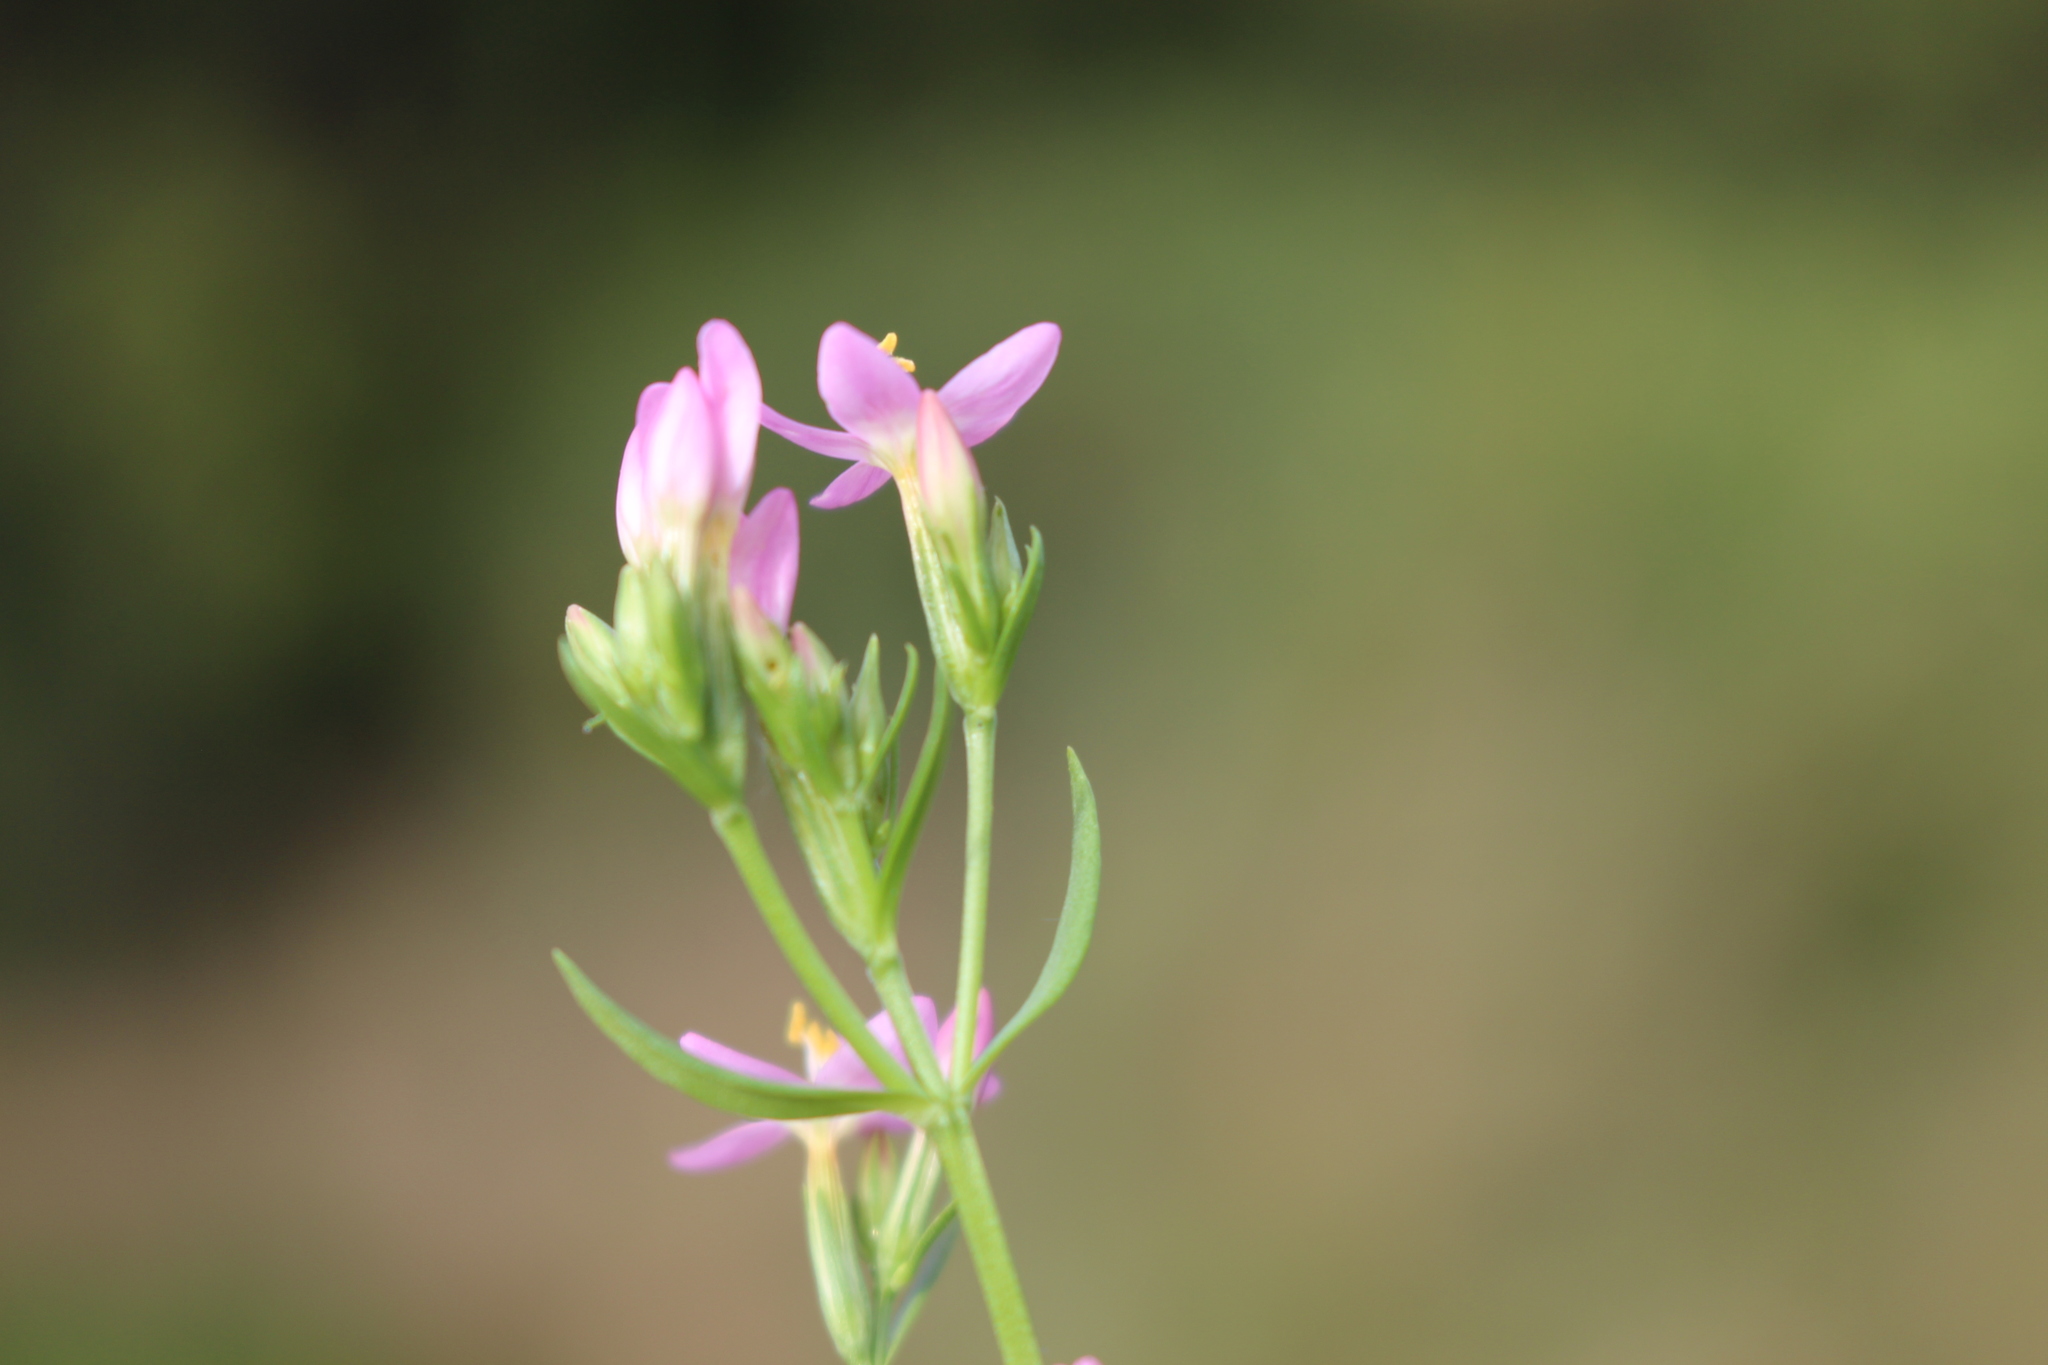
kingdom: Plantae
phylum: Tracheophyta
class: Magnoliopsida
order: Gentianales
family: Gentianaceae
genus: Centaurium
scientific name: Centaurium erythraea
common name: Common centaury
